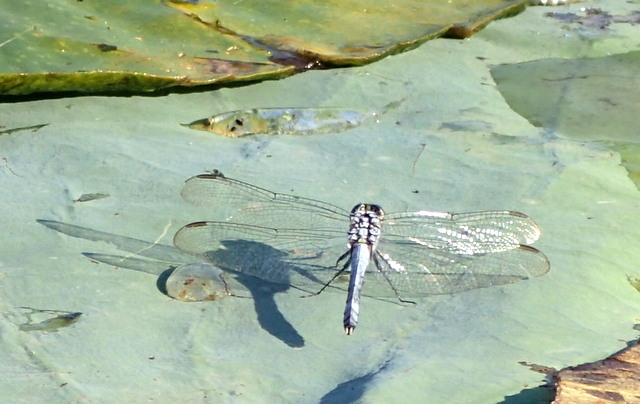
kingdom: Animalia
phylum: Arthropoda
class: Insecta
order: Odonata
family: Libellulidae
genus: Erythemis
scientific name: Erythemis simplicicollis
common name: Eastern pondhawk
